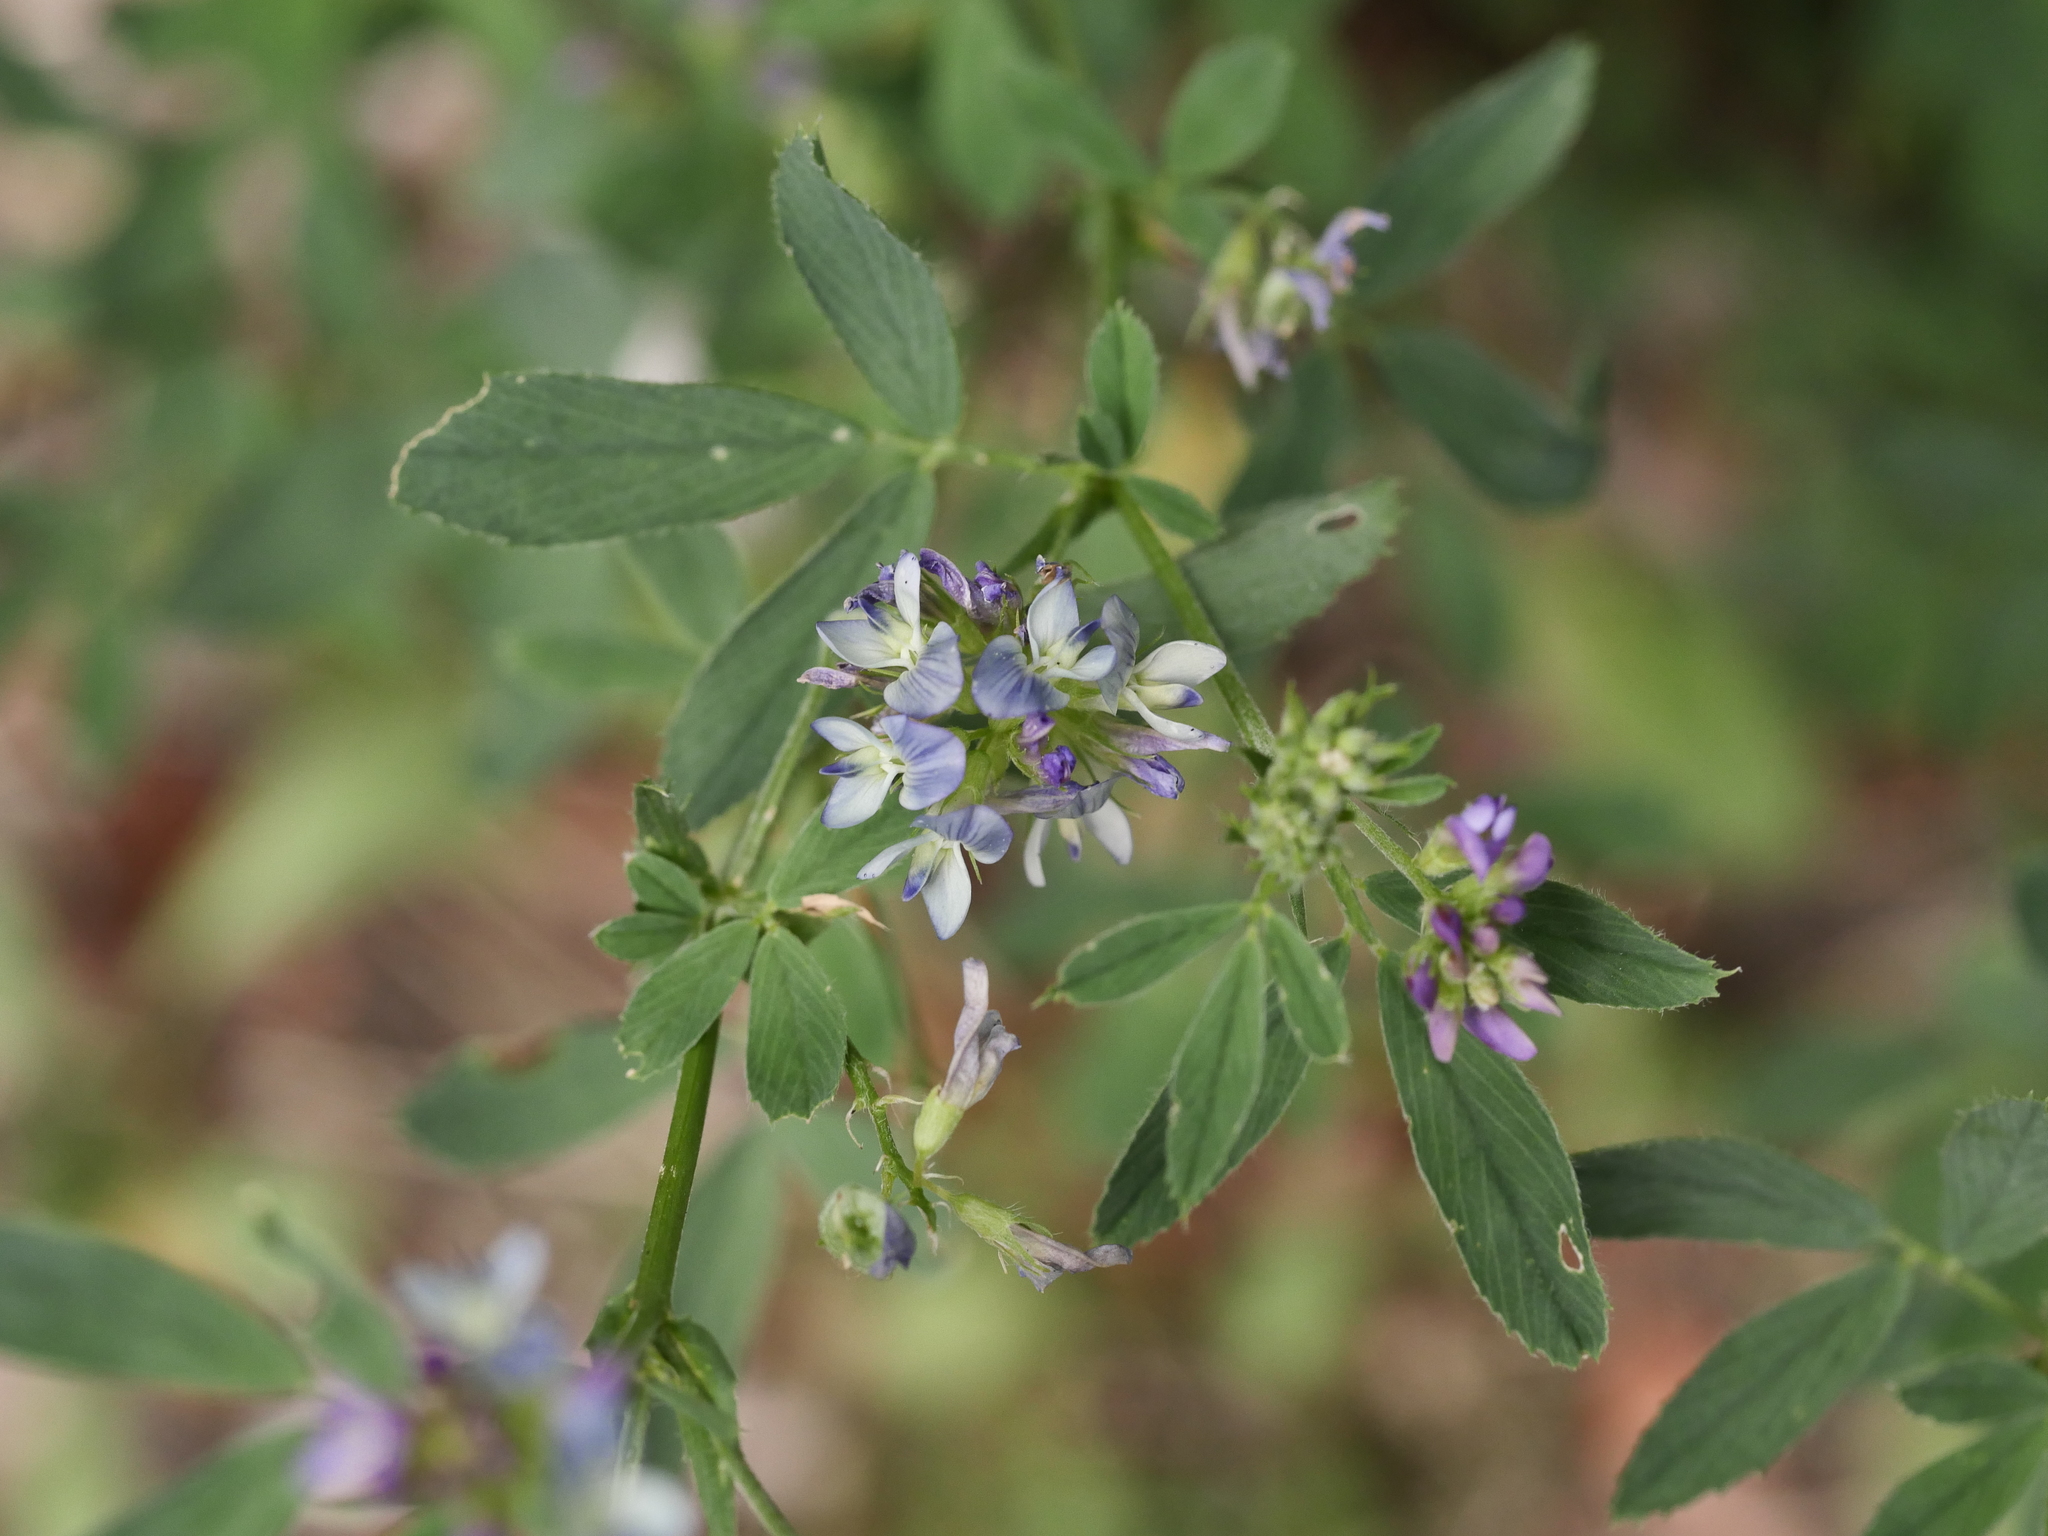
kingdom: Plantae
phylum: Tracheophyta
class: Magnoliopsida
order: Fabales
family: Fabaceae
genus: Medicago
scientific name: Medicago varia
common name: Sand lucerne
